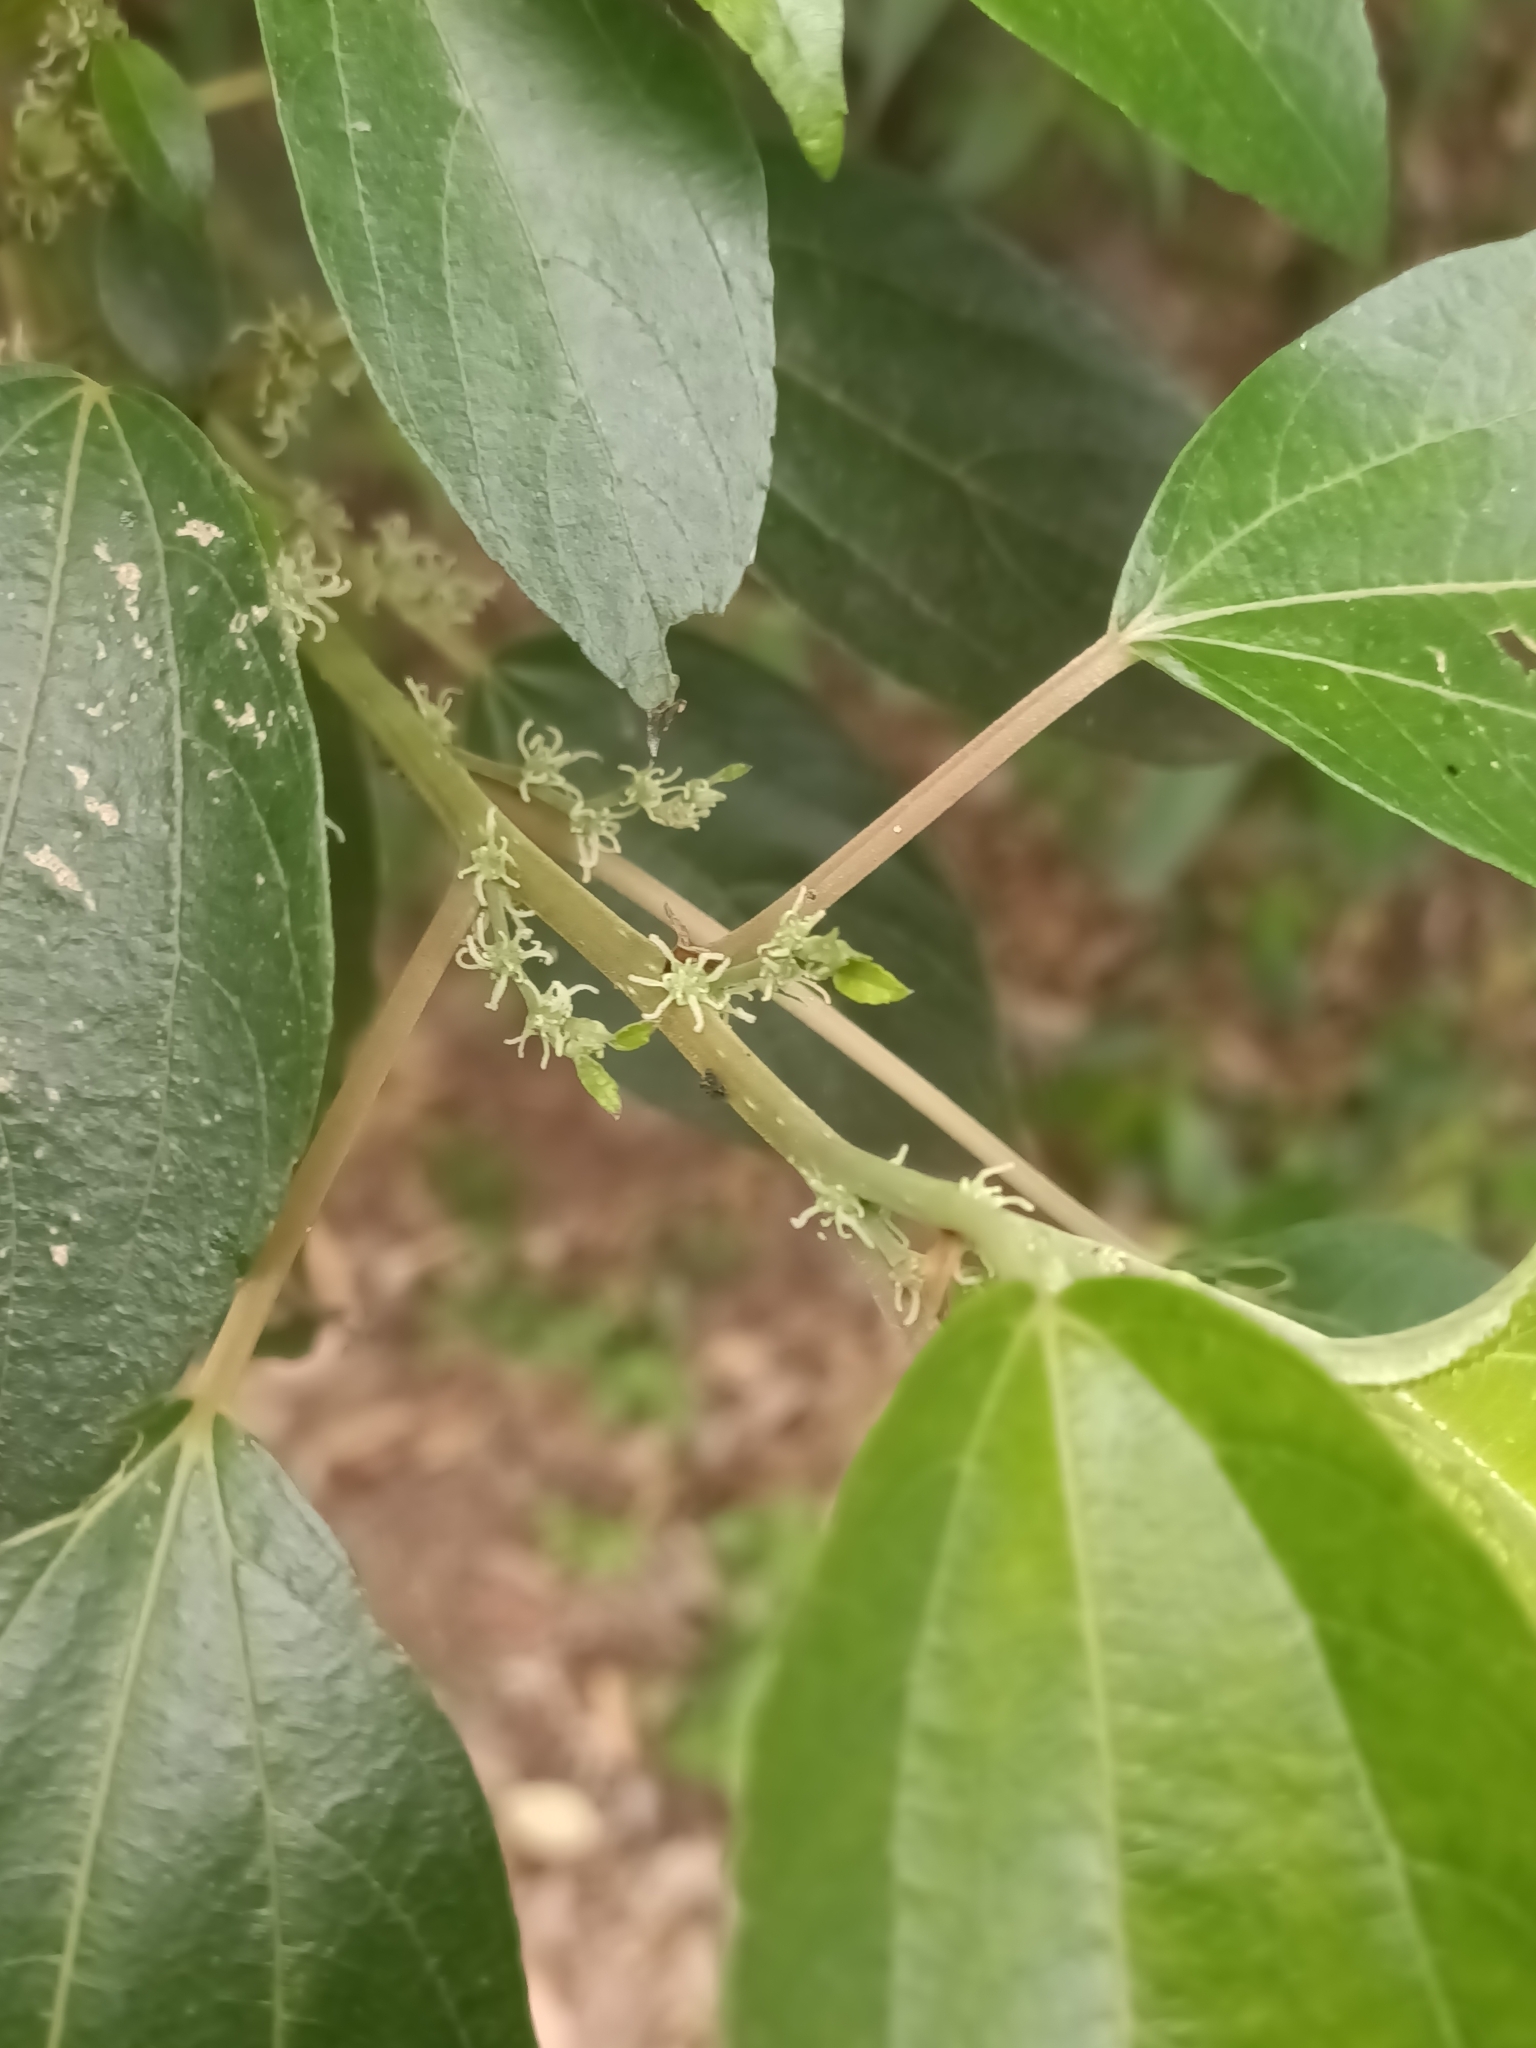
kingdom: Plantae
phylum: Tracheophyta
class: Magnoliopsida
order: Rosales
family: Urticaceae
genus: Pipturus
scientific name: Pipturus argenteus
